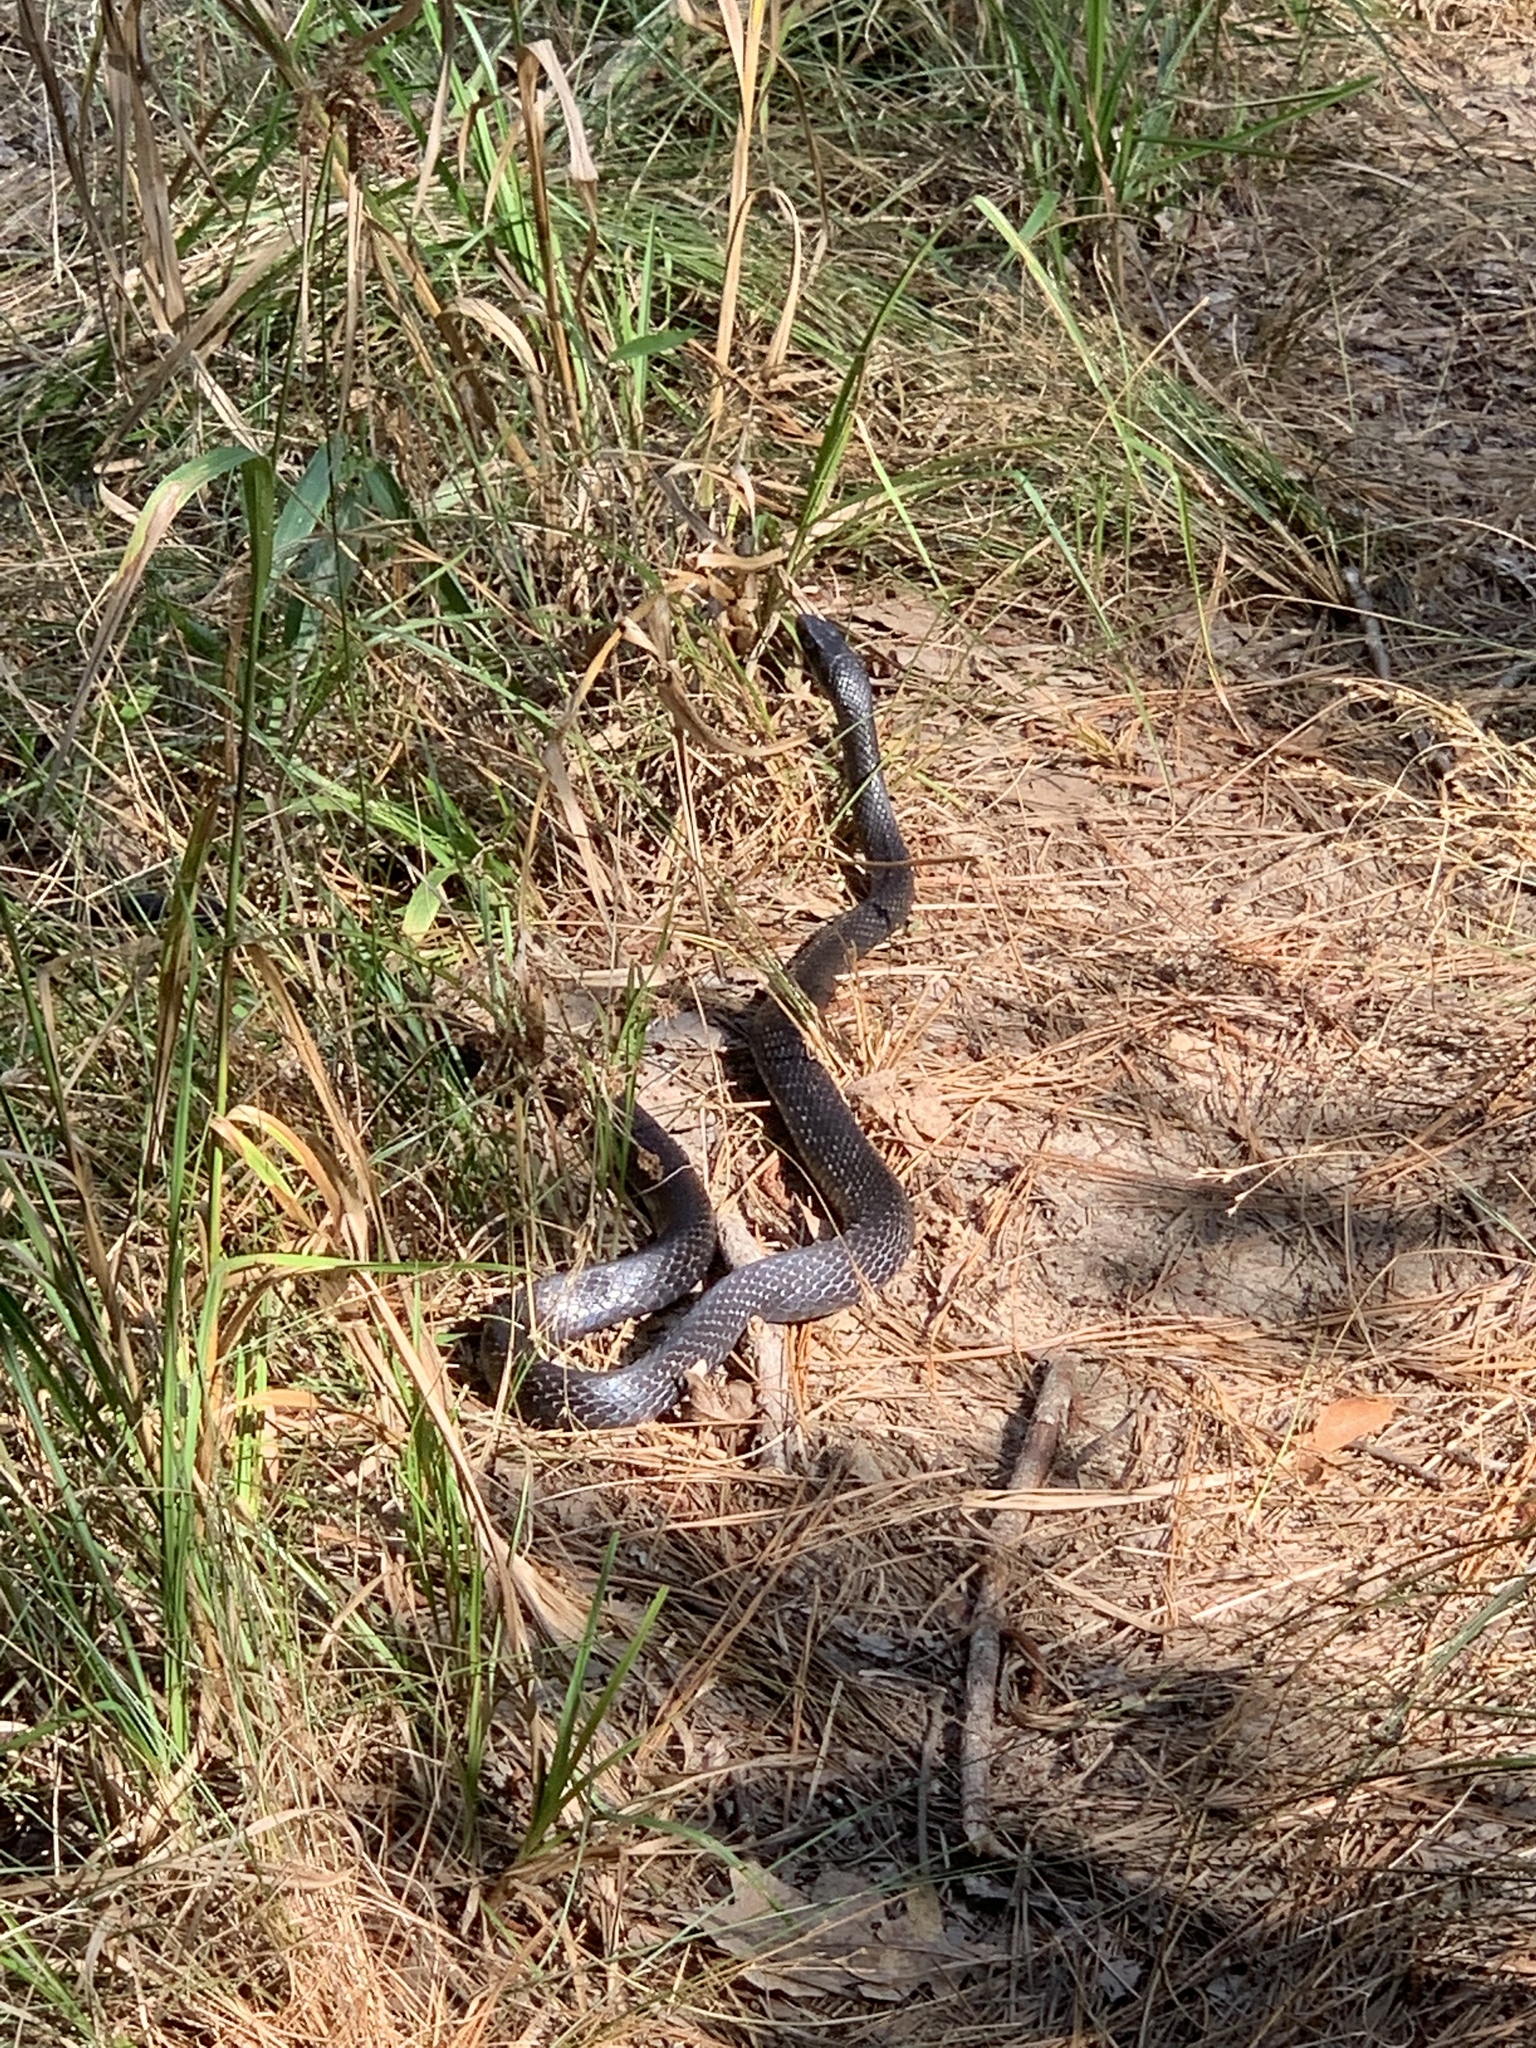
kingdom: Animalia
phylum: Chordata
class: Squamata
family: Colubridae
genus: Coluber
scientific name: Coluber constrictor
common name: Eastern racer
